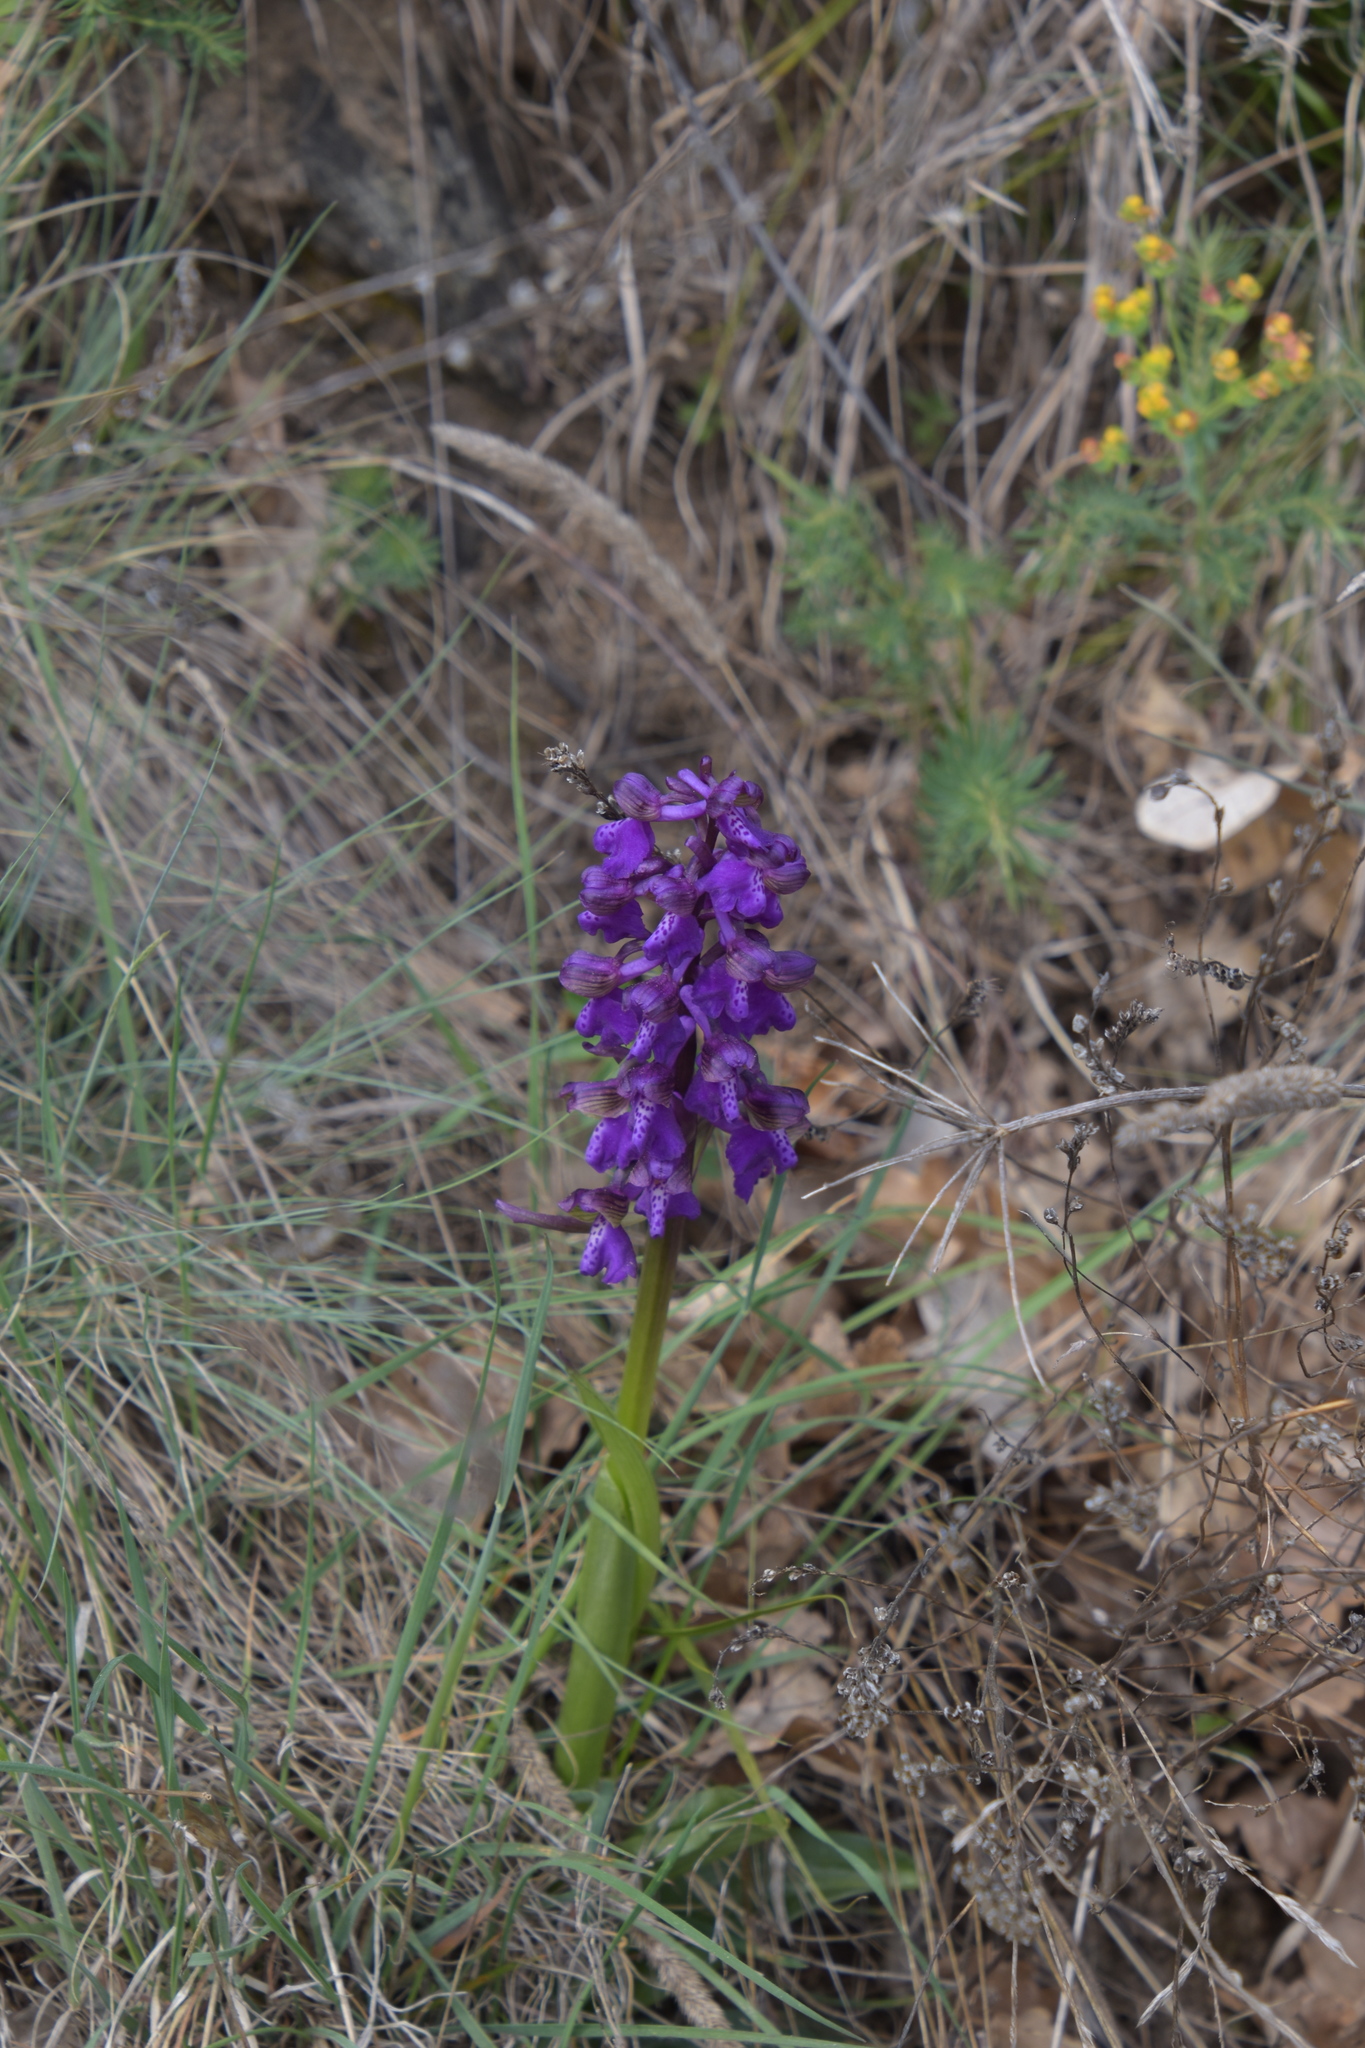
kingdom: Plantae
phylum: Tracheophyta
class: Liliopsida
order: Asparagales
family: Orchidaceae
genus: Anacamptis
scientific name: Anacamptis morio
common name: Green-winged orchid
